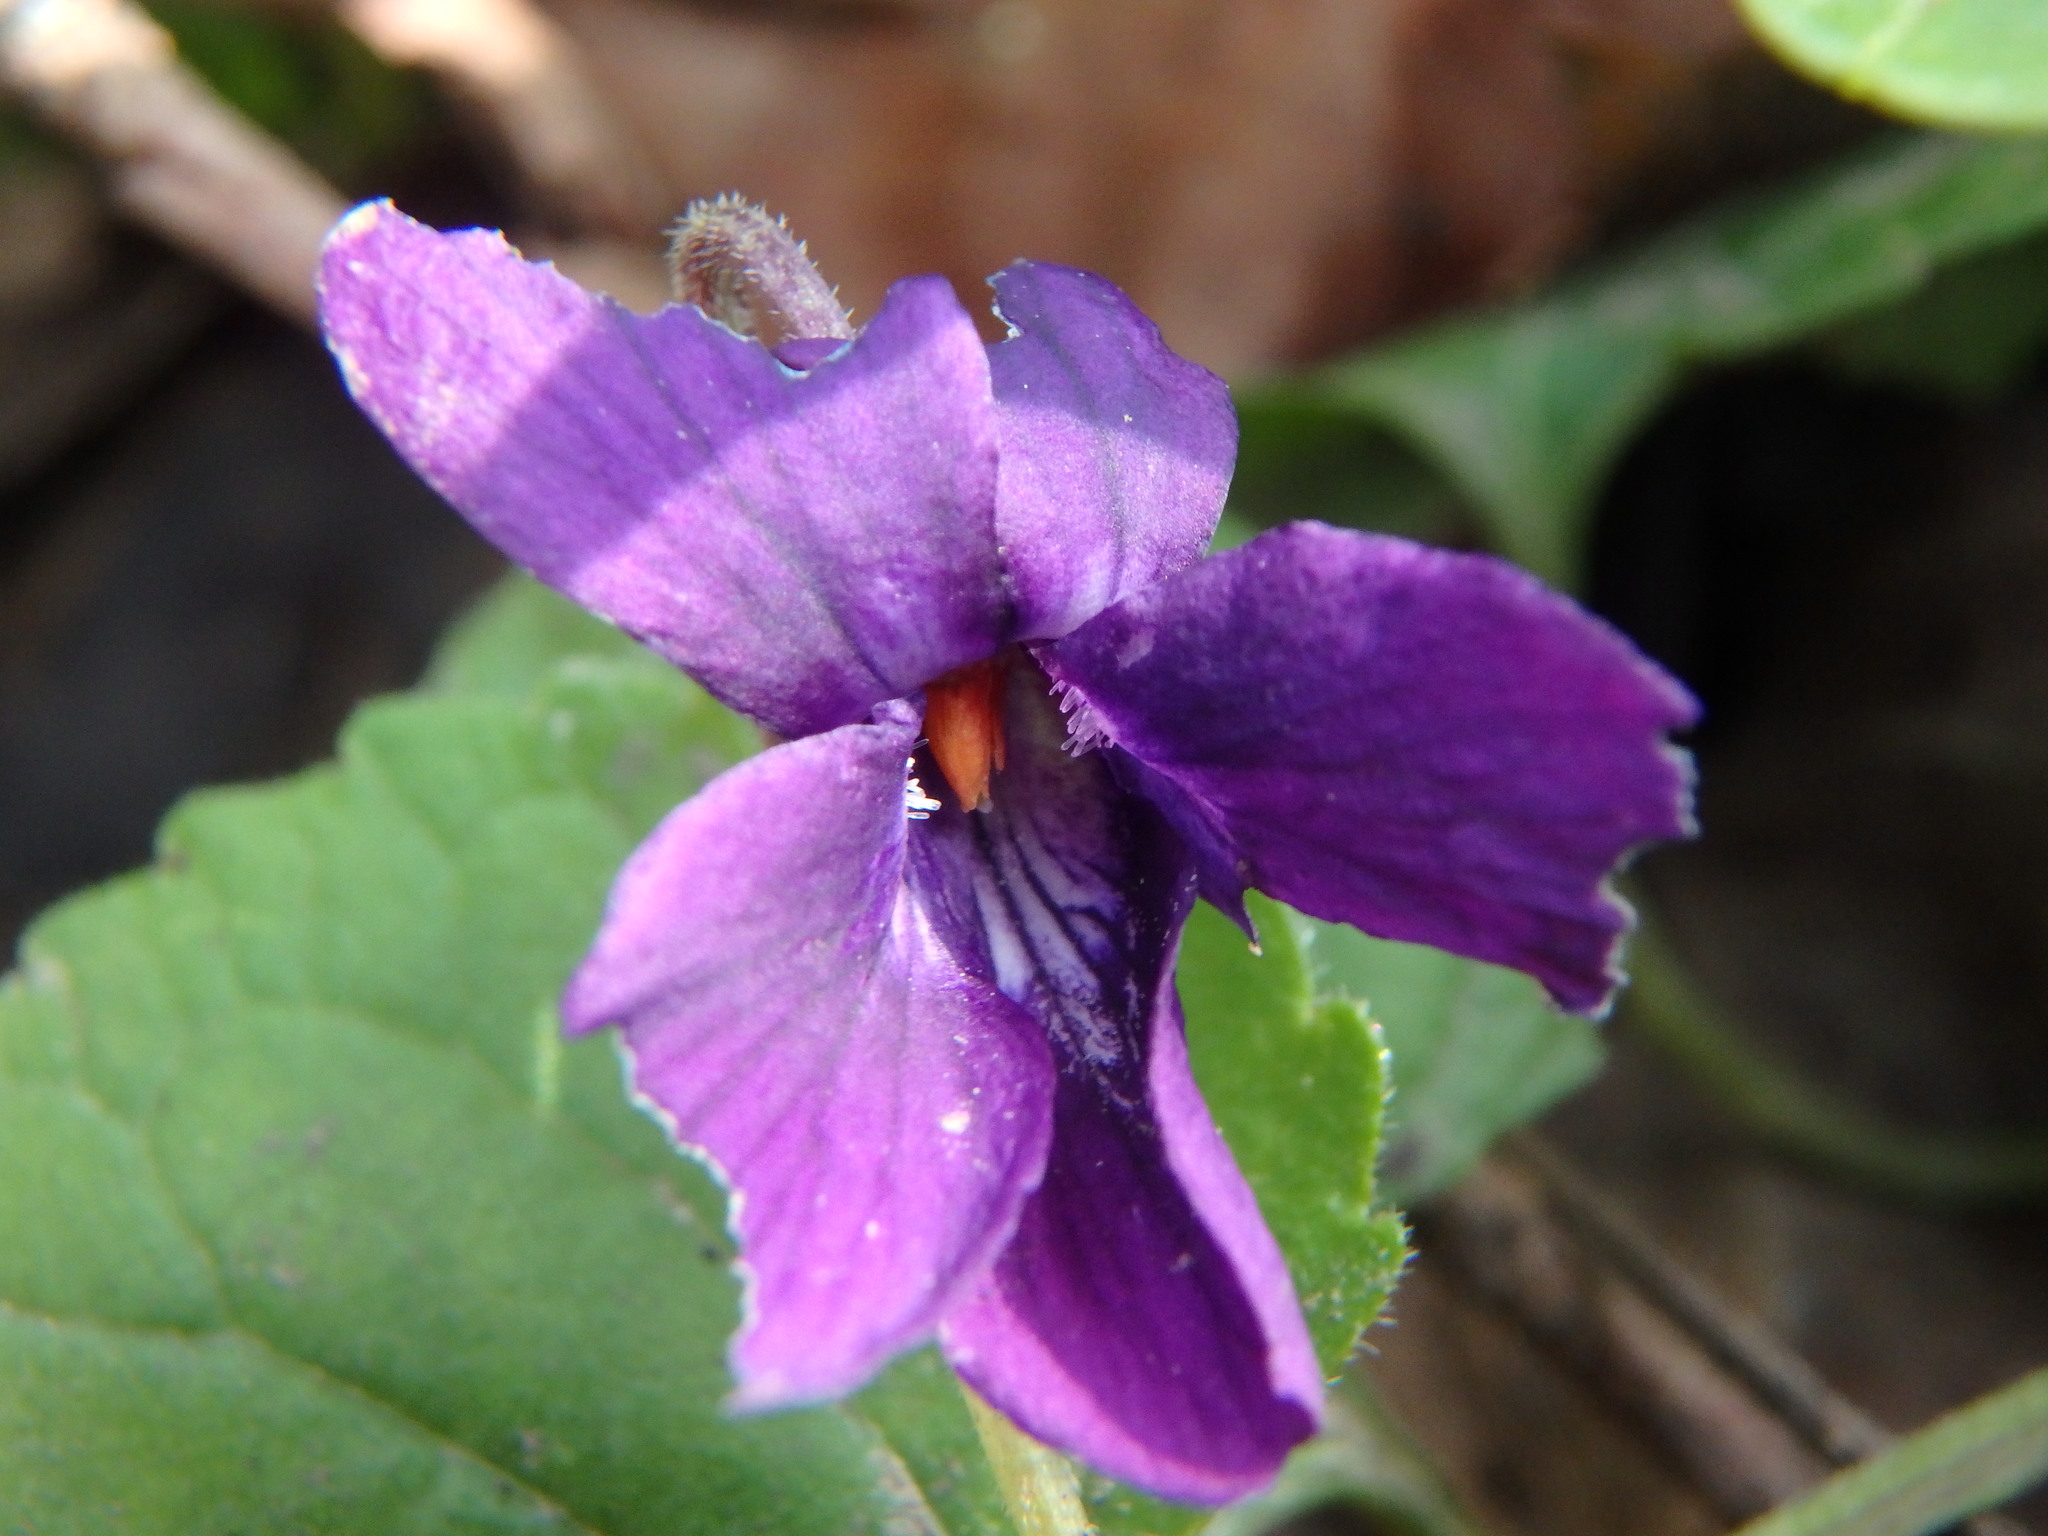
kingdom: Plantae
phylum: Tracheophyta
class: Magnoliopsida
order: Malpighiales
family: Violaceae
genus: Viola
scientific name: Viola odorata
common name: Sweet violet
